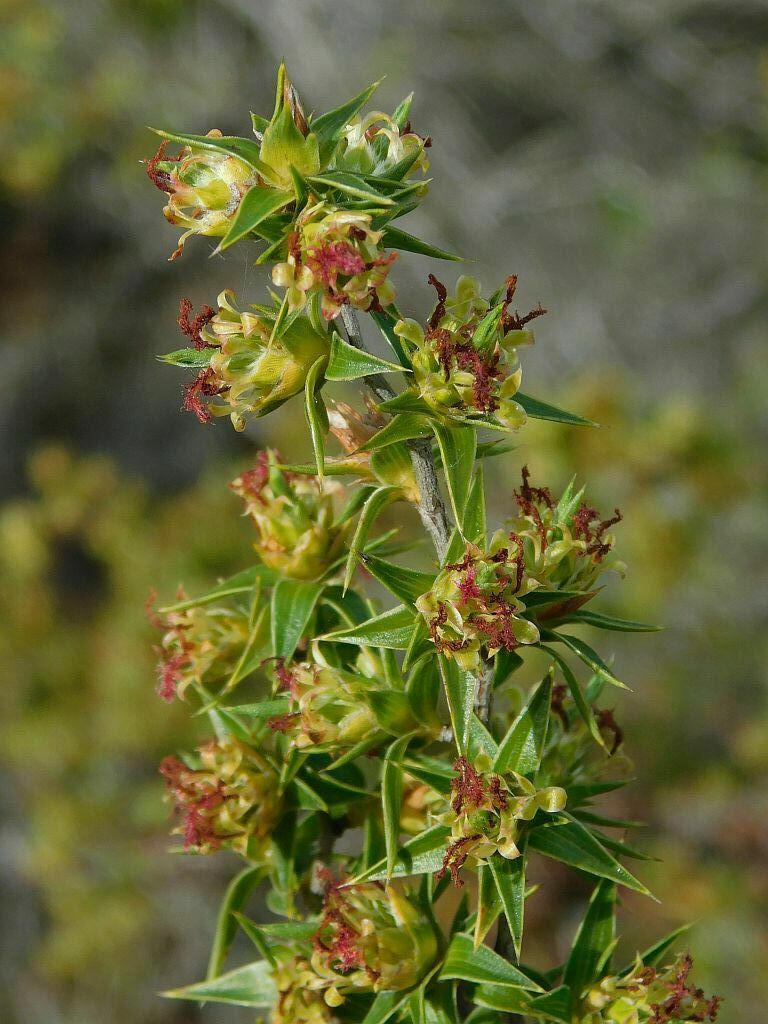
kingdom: Plantae
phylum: Tracheophyta
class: Magnoliopsida
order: Rosales
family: Rosaceae
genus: Cliffortia
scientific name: Cliffortia ruscifolia
